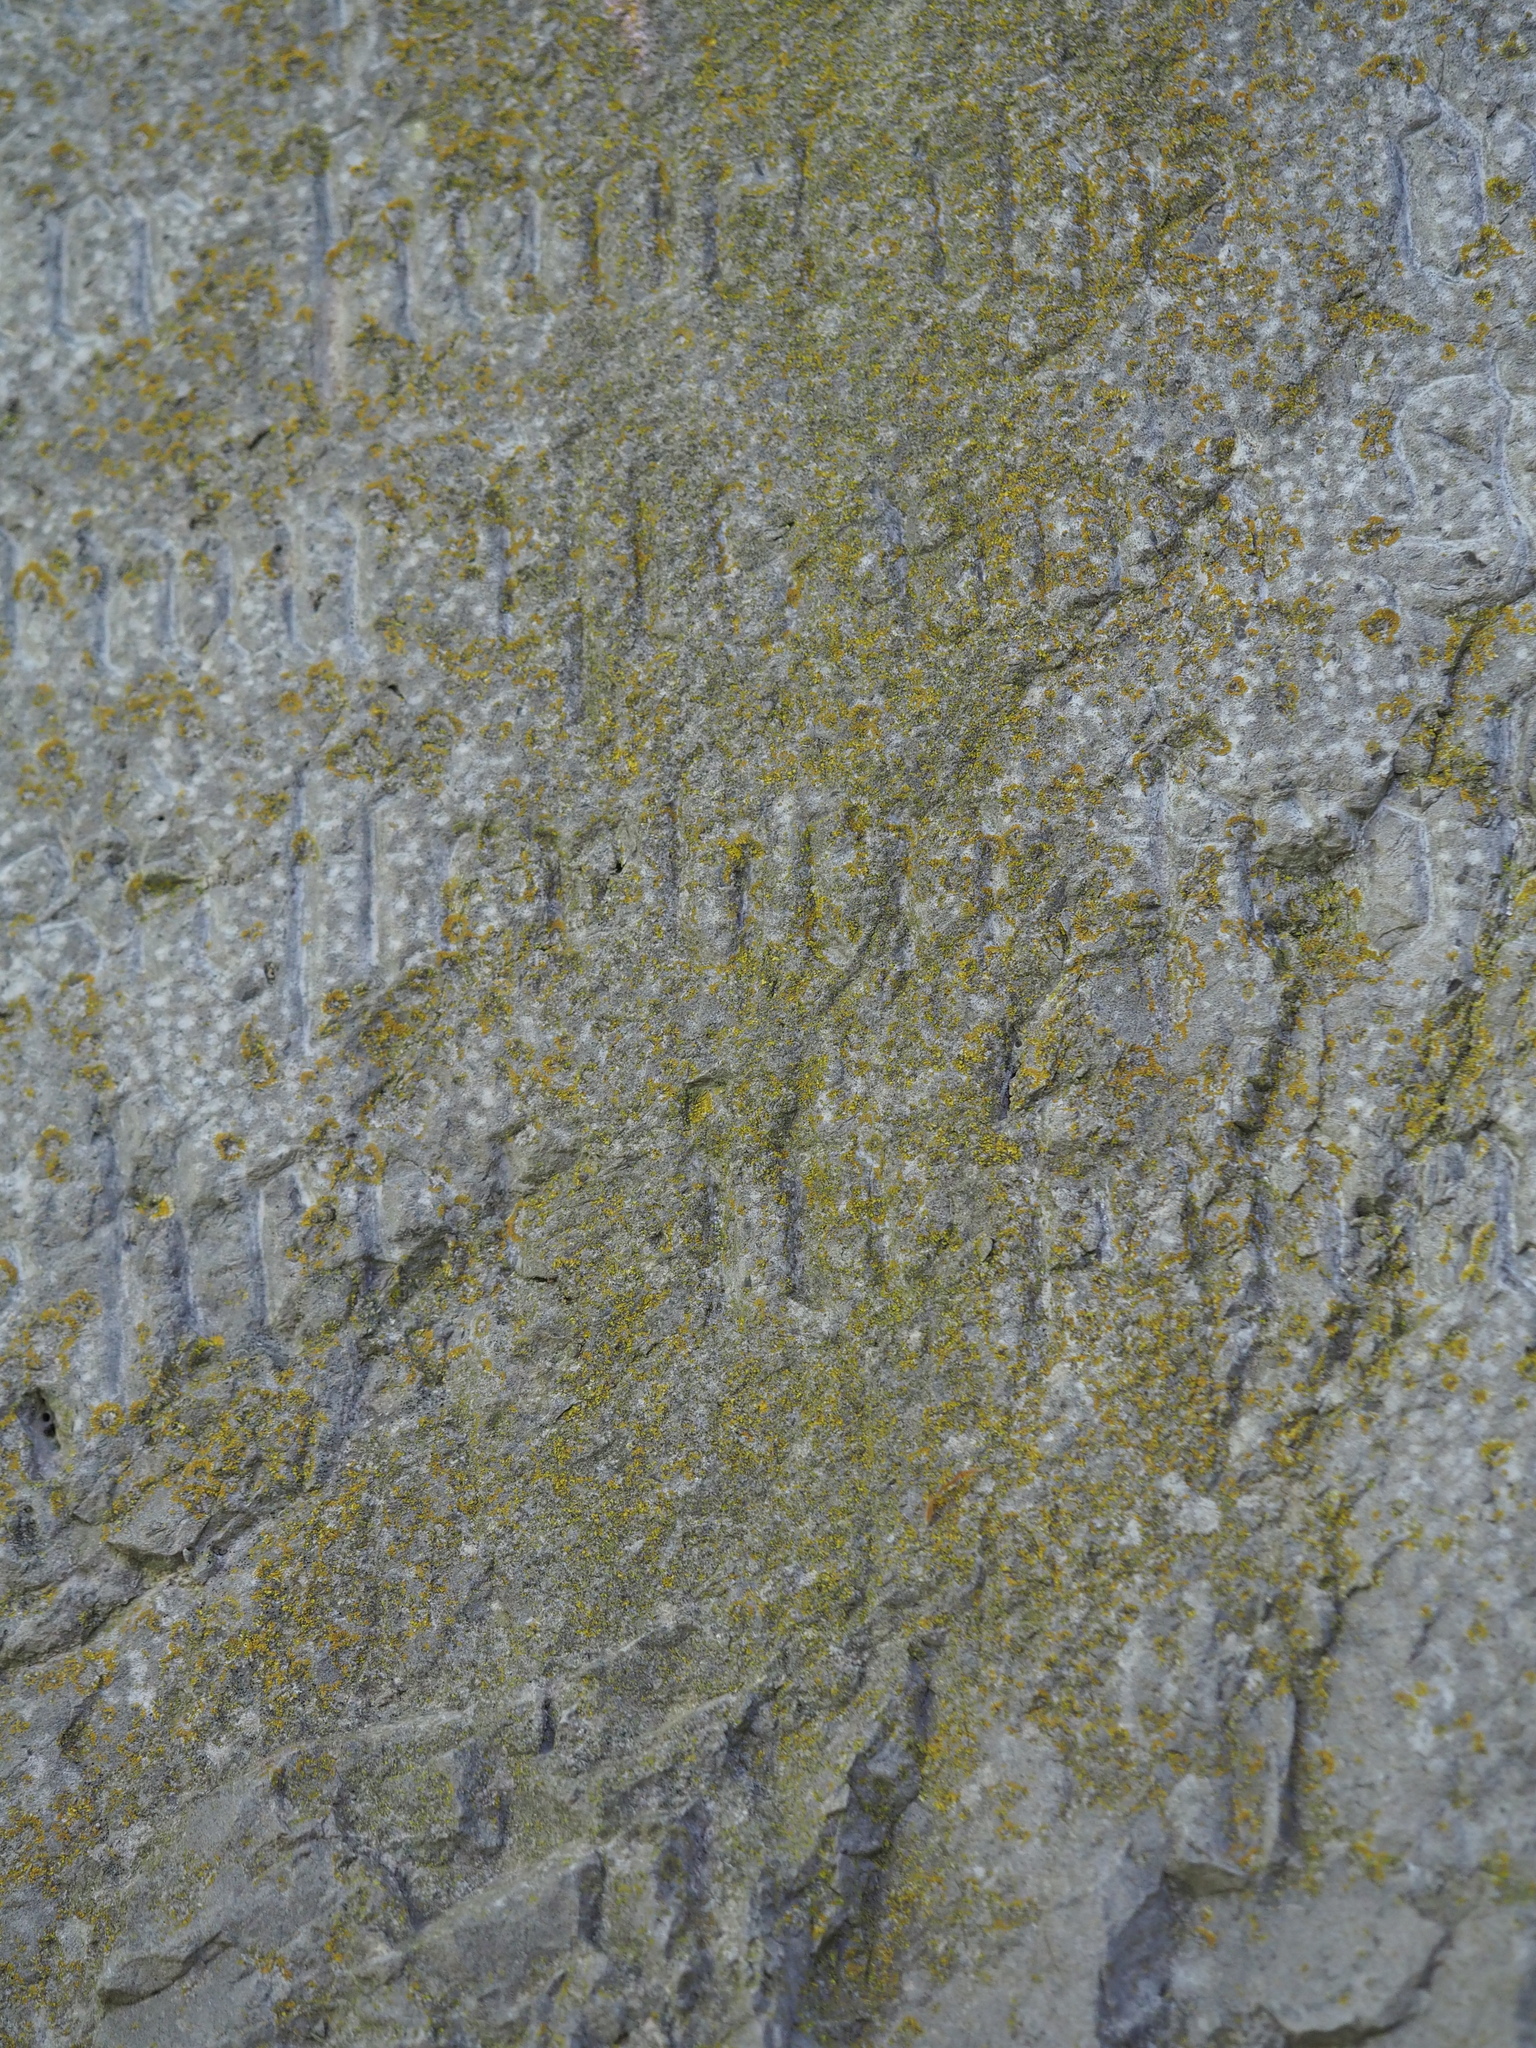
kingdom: Fungi
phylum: Ascomycota
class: Lecanoromycetes
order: Teloschistales
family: Teloschistaceae
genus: Calogaya
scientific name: Calogaya decipiens
